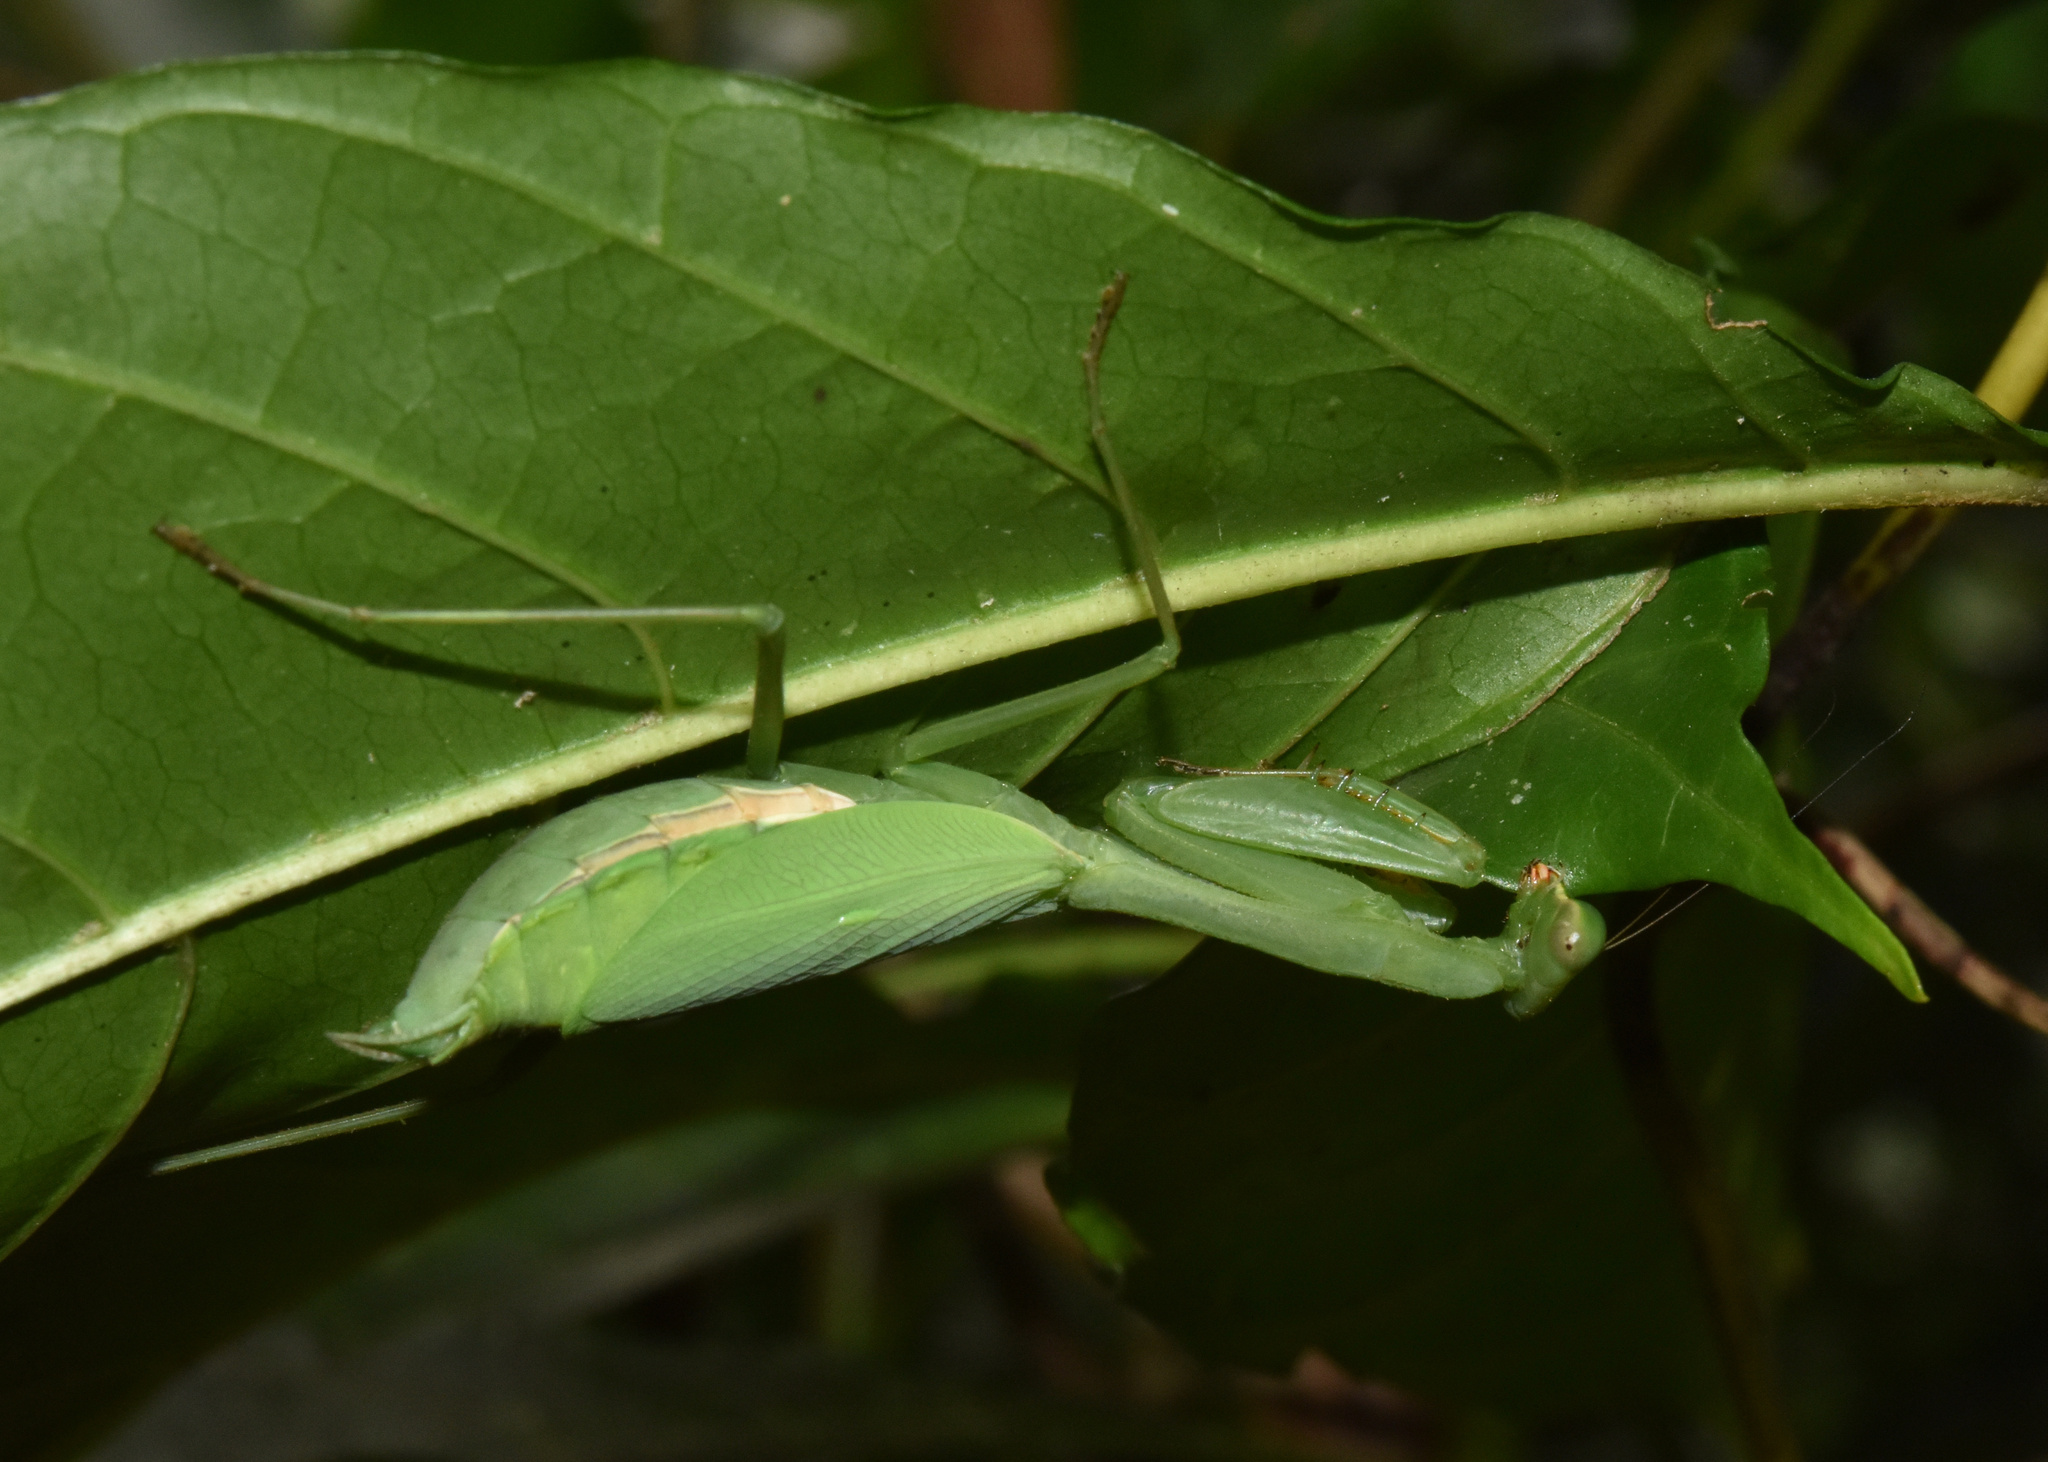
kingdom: Animalia
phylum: Arthropoda
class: Insecta
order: Mantodea
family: Miomantidae
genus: Miomantis
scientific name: Miomantis caffra
